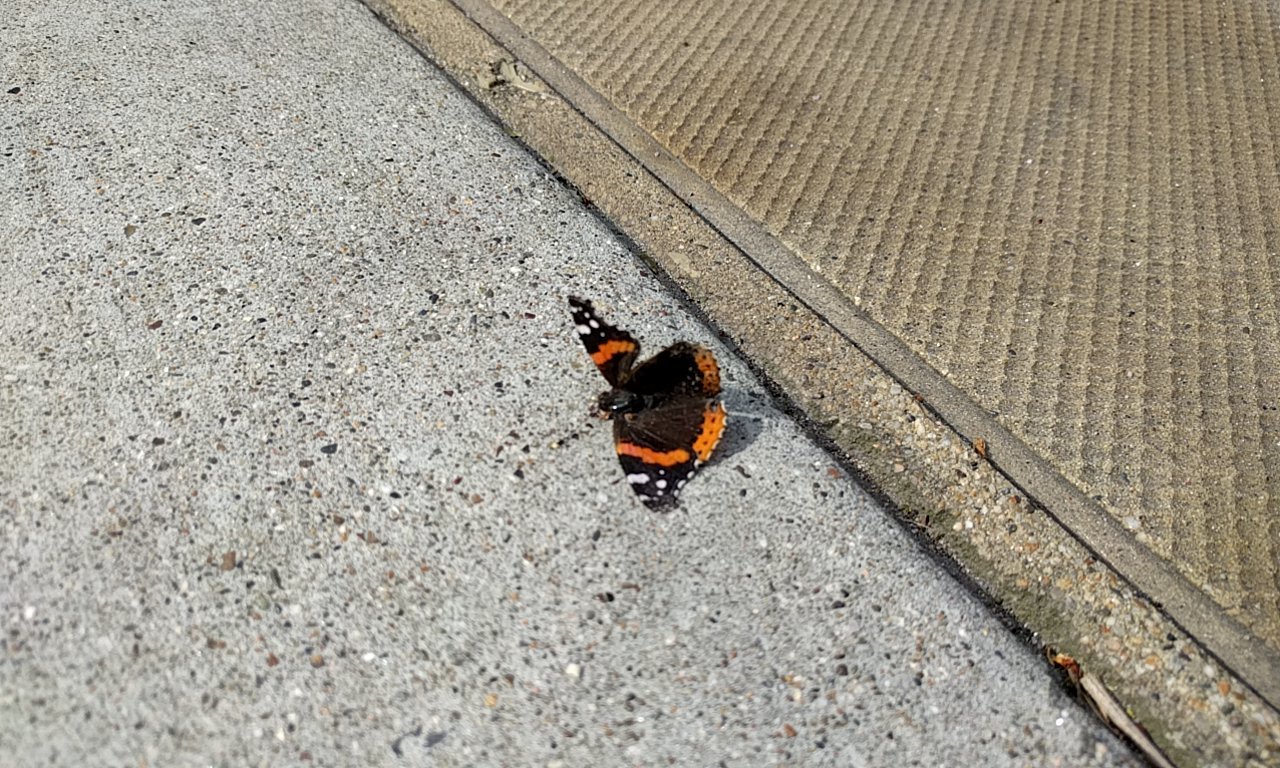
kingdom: Animalia
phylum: Arthropoda
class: Insecta
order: Lepidoptera
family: Nymphalidae
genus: Vanessa
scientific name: Vanessa atalanta
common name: Red admiral
